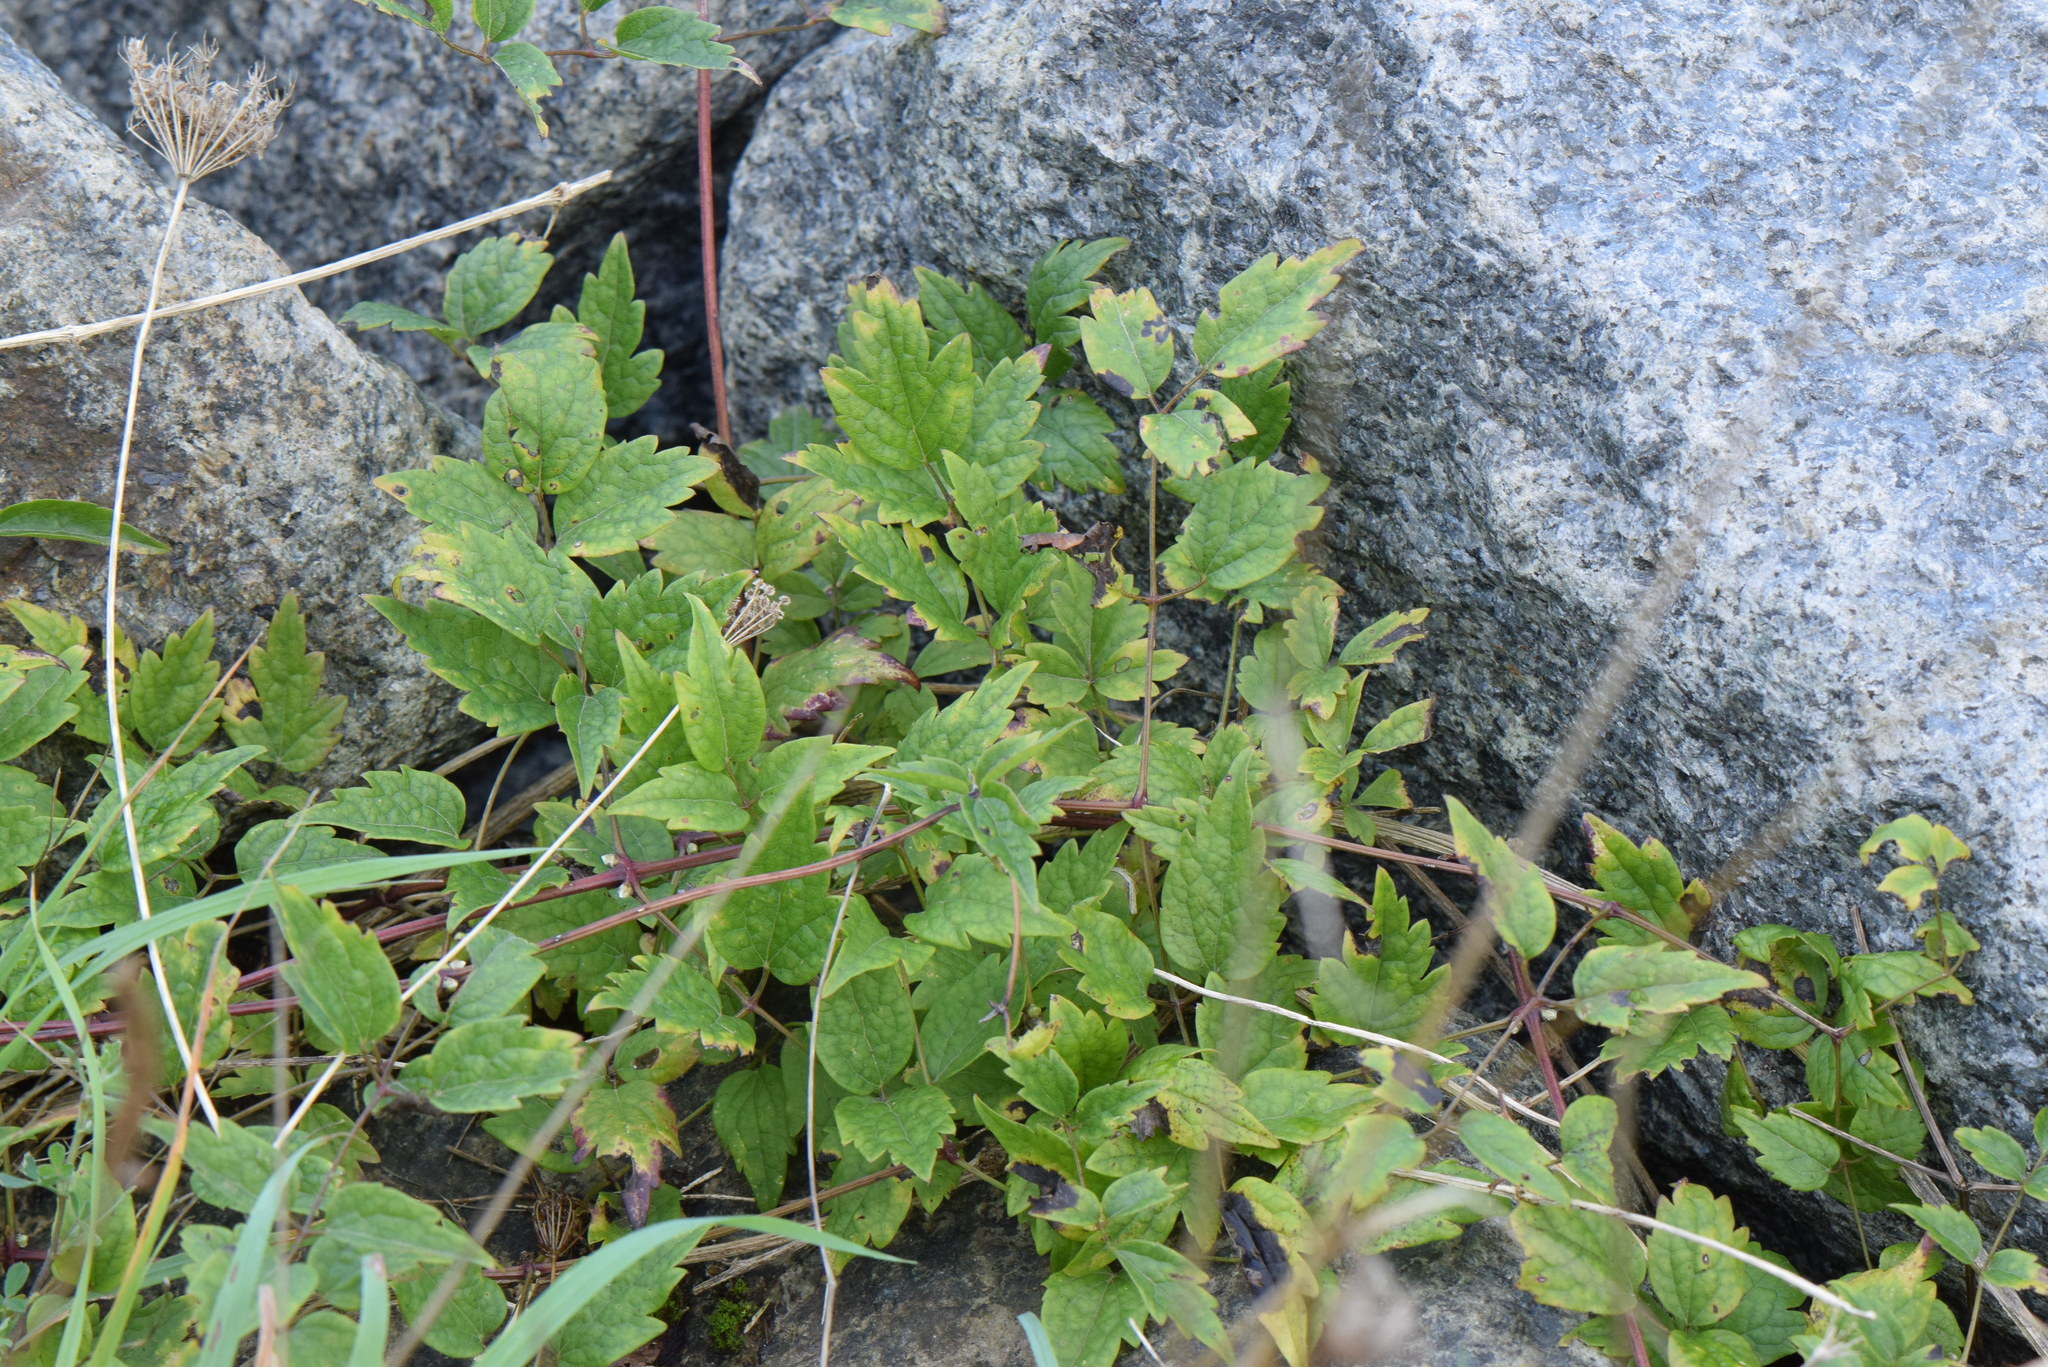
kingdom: Plantae
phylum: Tracheophyta
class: Magnoliopsida
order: Ranunculales
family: Ranunculaceae
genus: Clematis
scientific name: Clematis vitalba
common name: Evergreen clematis
